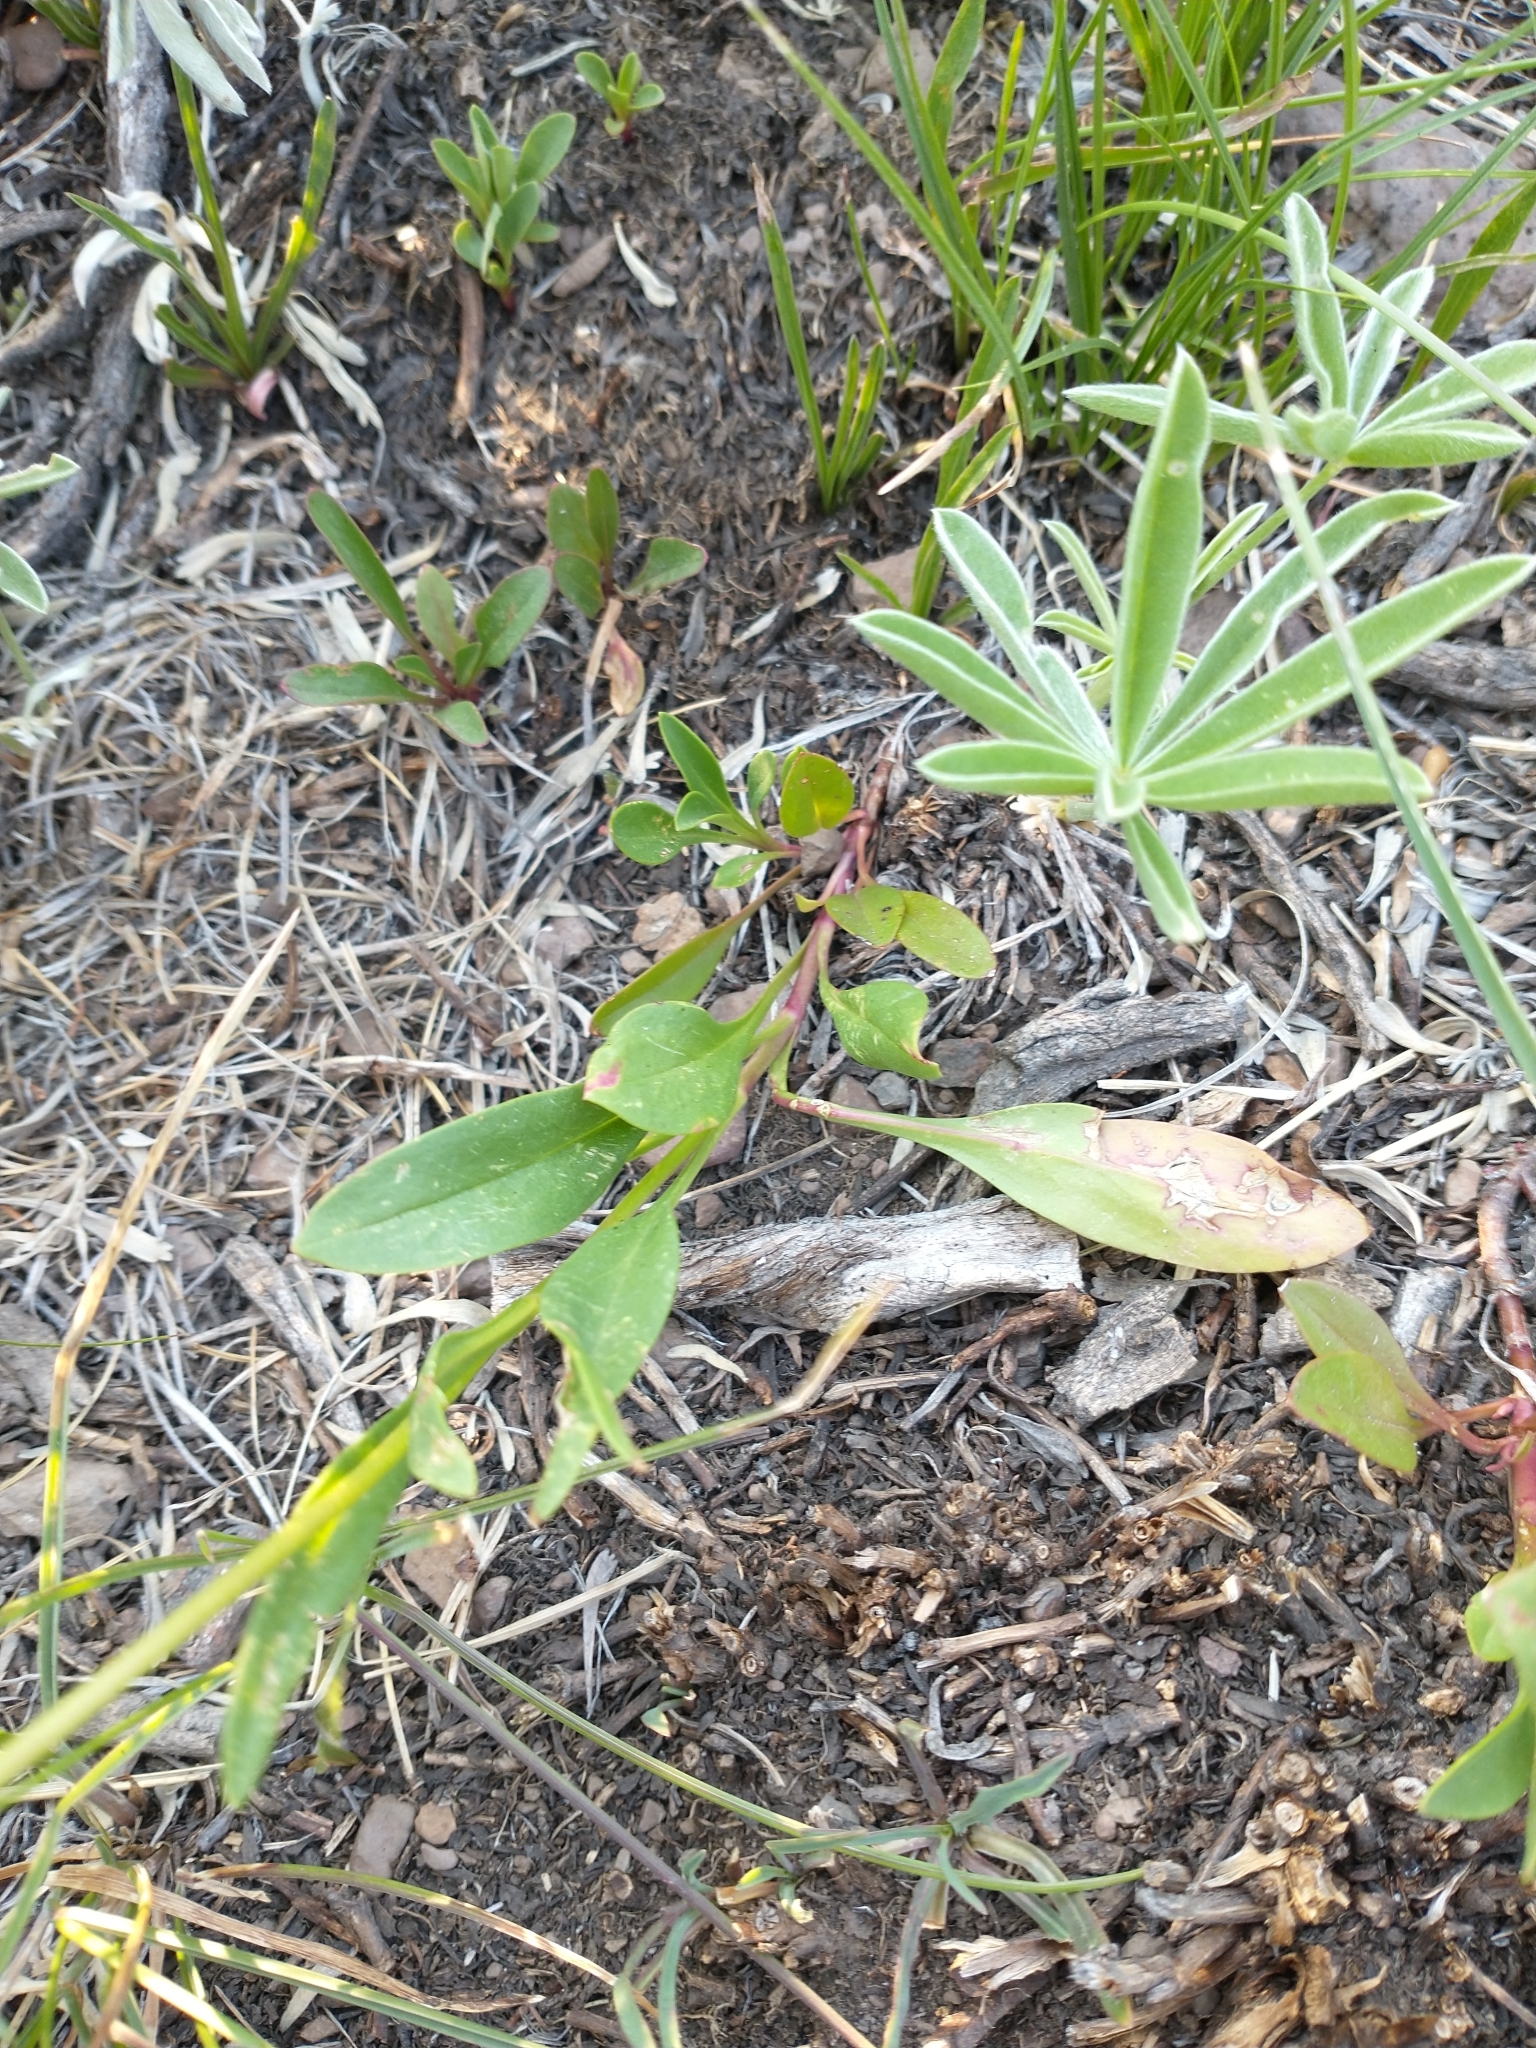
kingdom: Plantae
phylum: Tracheophyta
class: Magnoliopsida
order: Lamiales
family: Plantaginaceae
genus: Penstemon
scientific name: Penstemon procerus
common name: Small-flower penstemon
